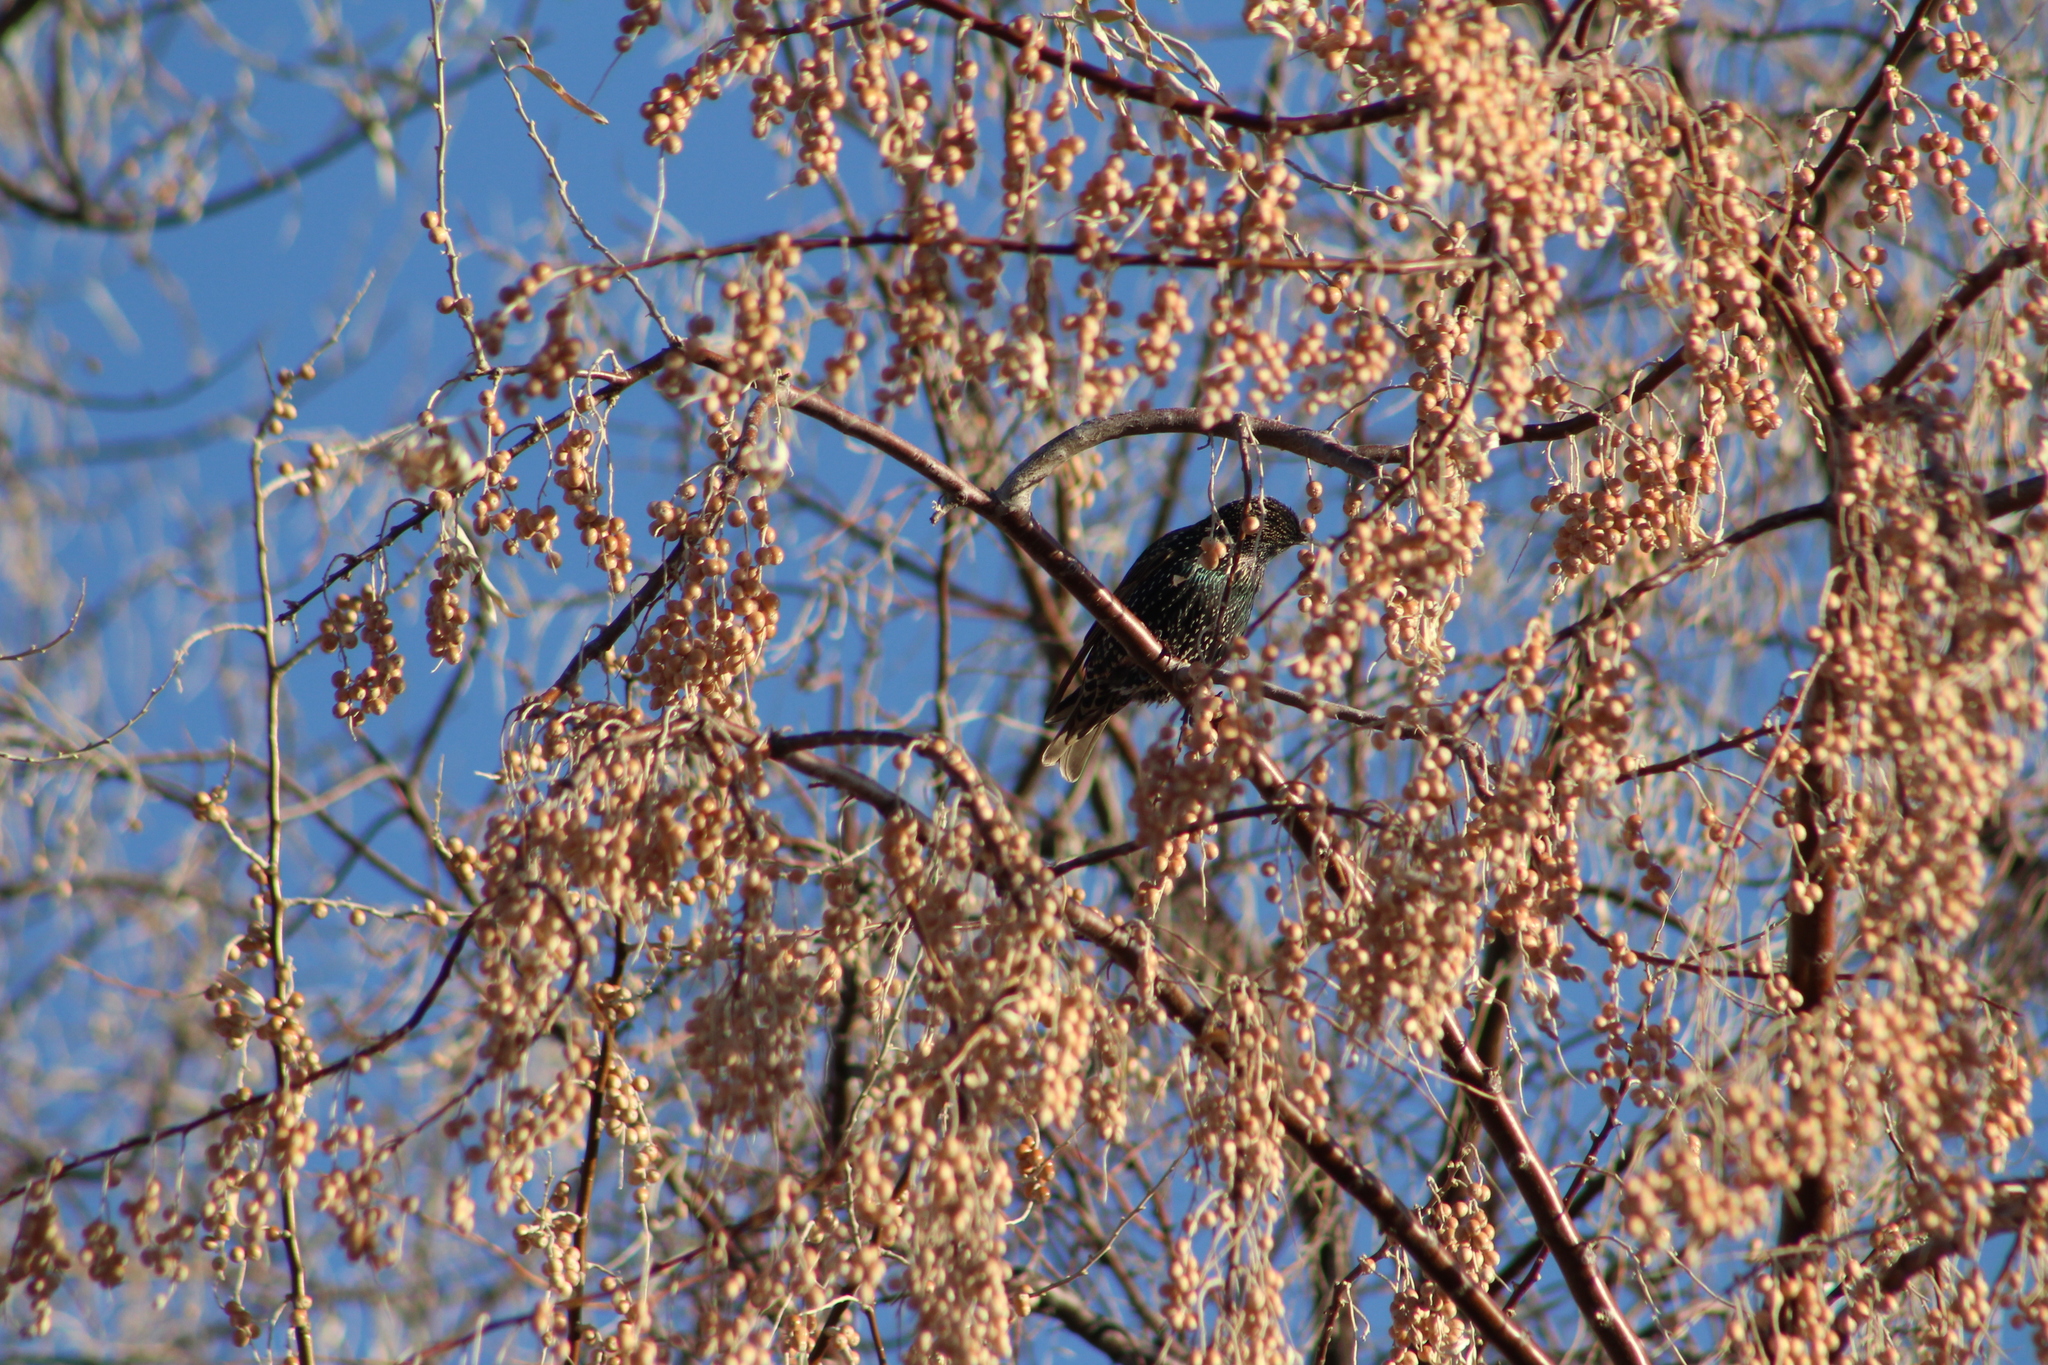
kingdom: Animalia
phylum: Chordata
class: Aves
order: Passeriformes
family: Sturnidae
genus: Sturnus
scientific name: Sturnus vulgaris
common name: Common starling
